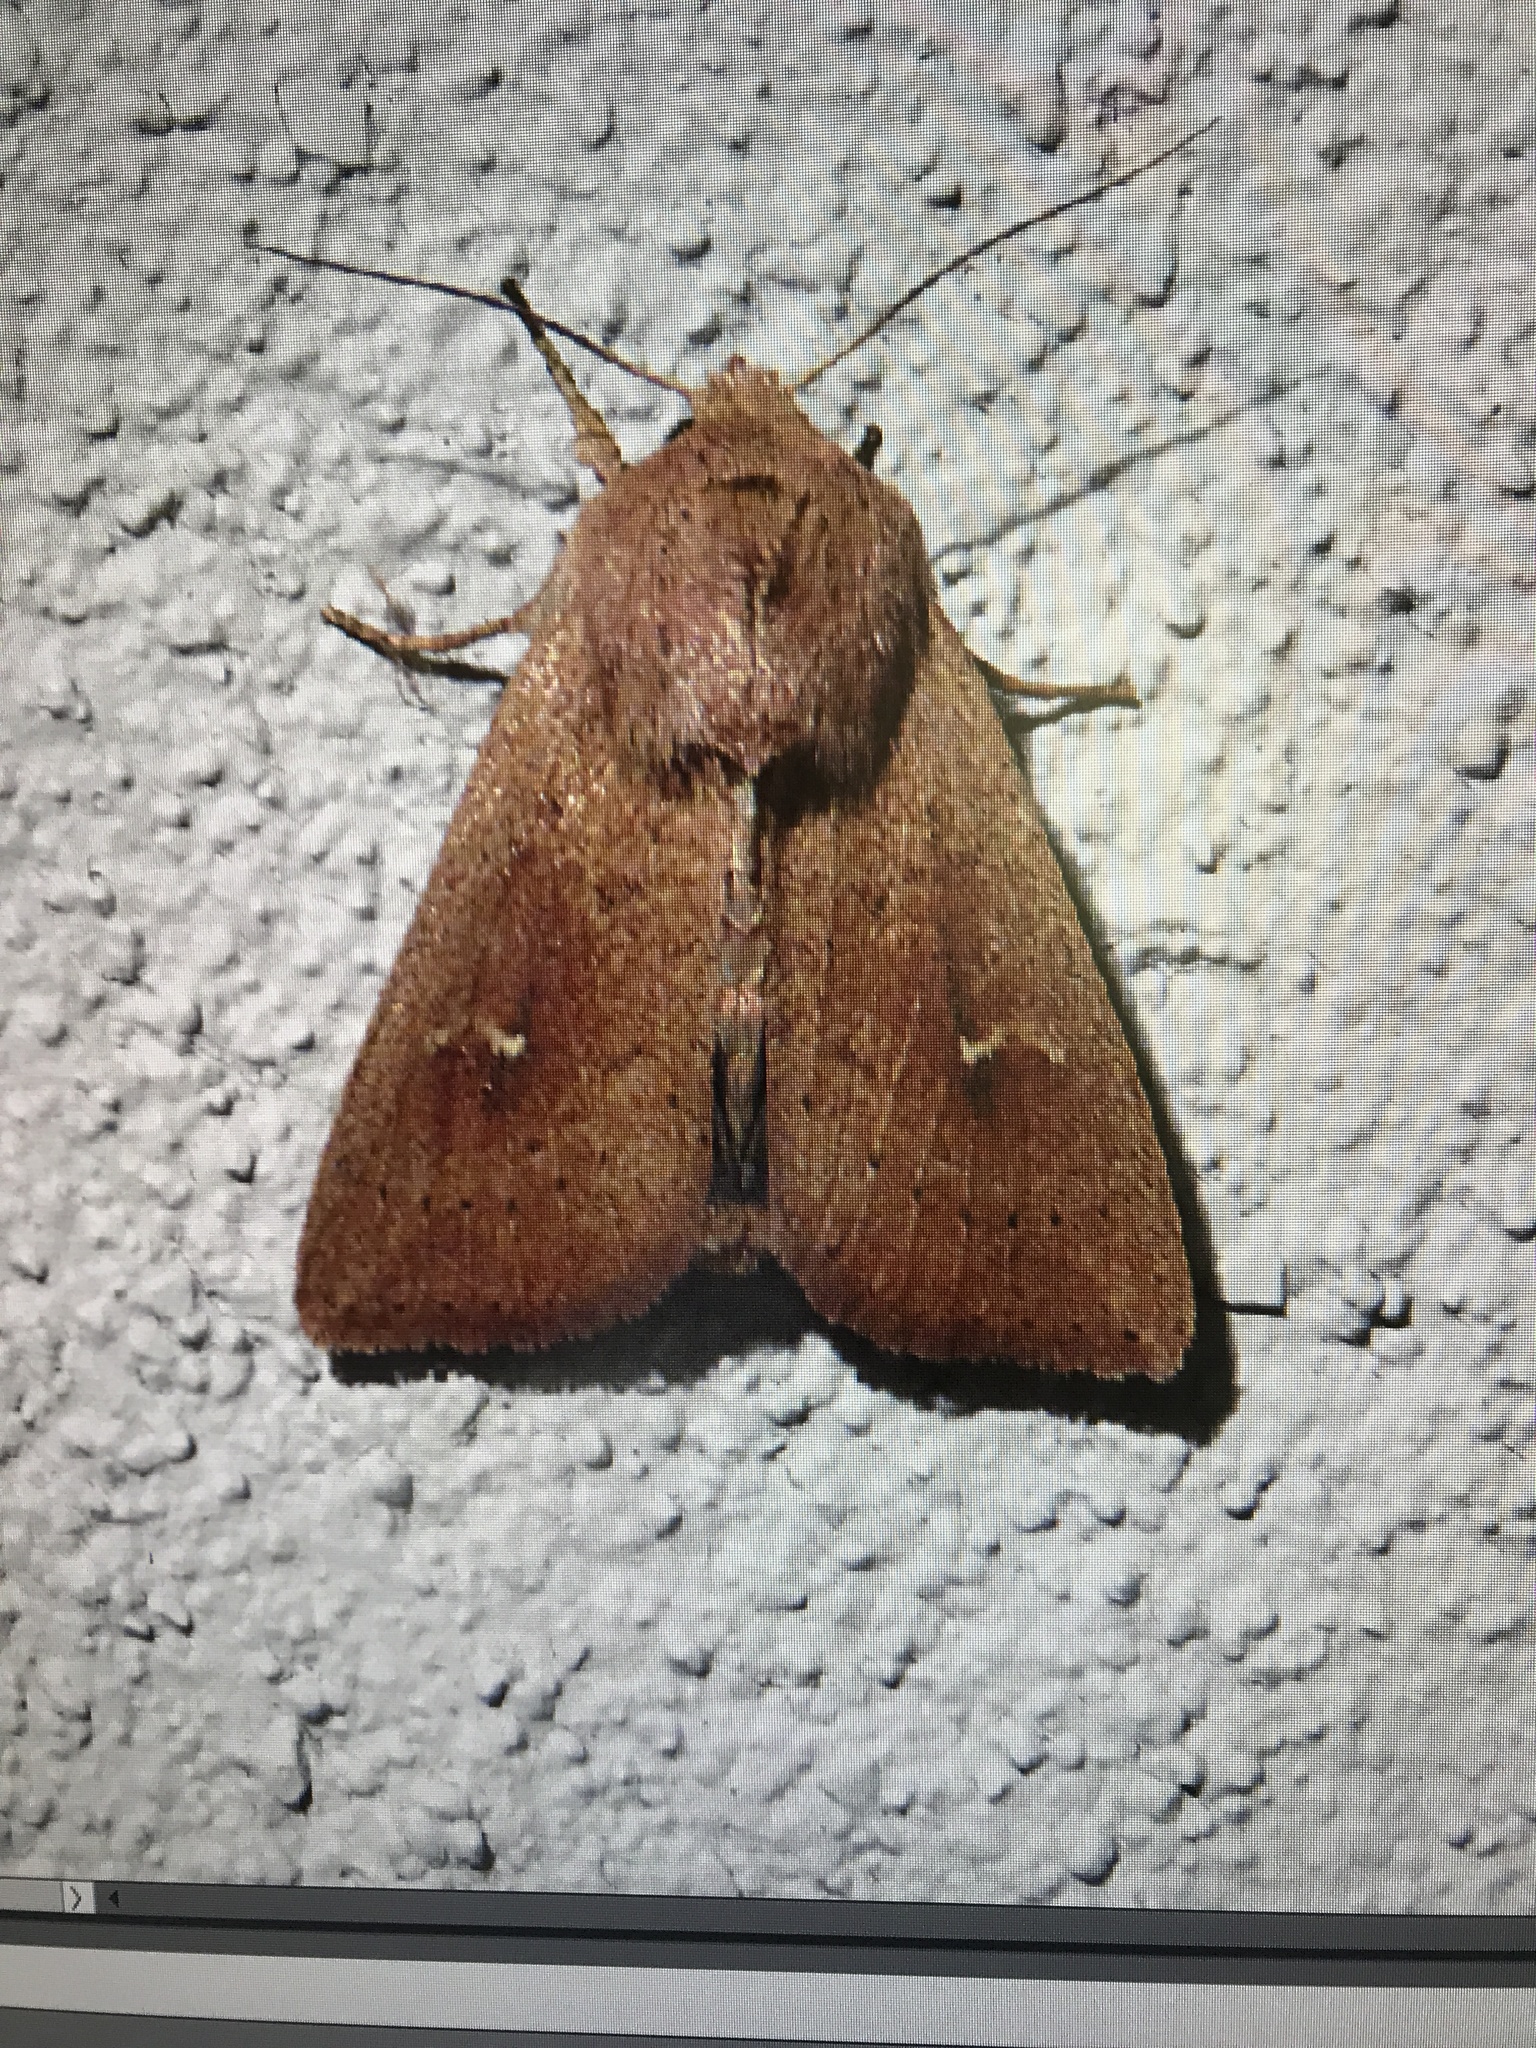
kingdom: Animalia
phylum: Arthropoda
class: Insecta
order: Lepidoptera
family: Noctuidae
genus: Mythimna
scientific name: Mythimna ferrago
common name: Clay
